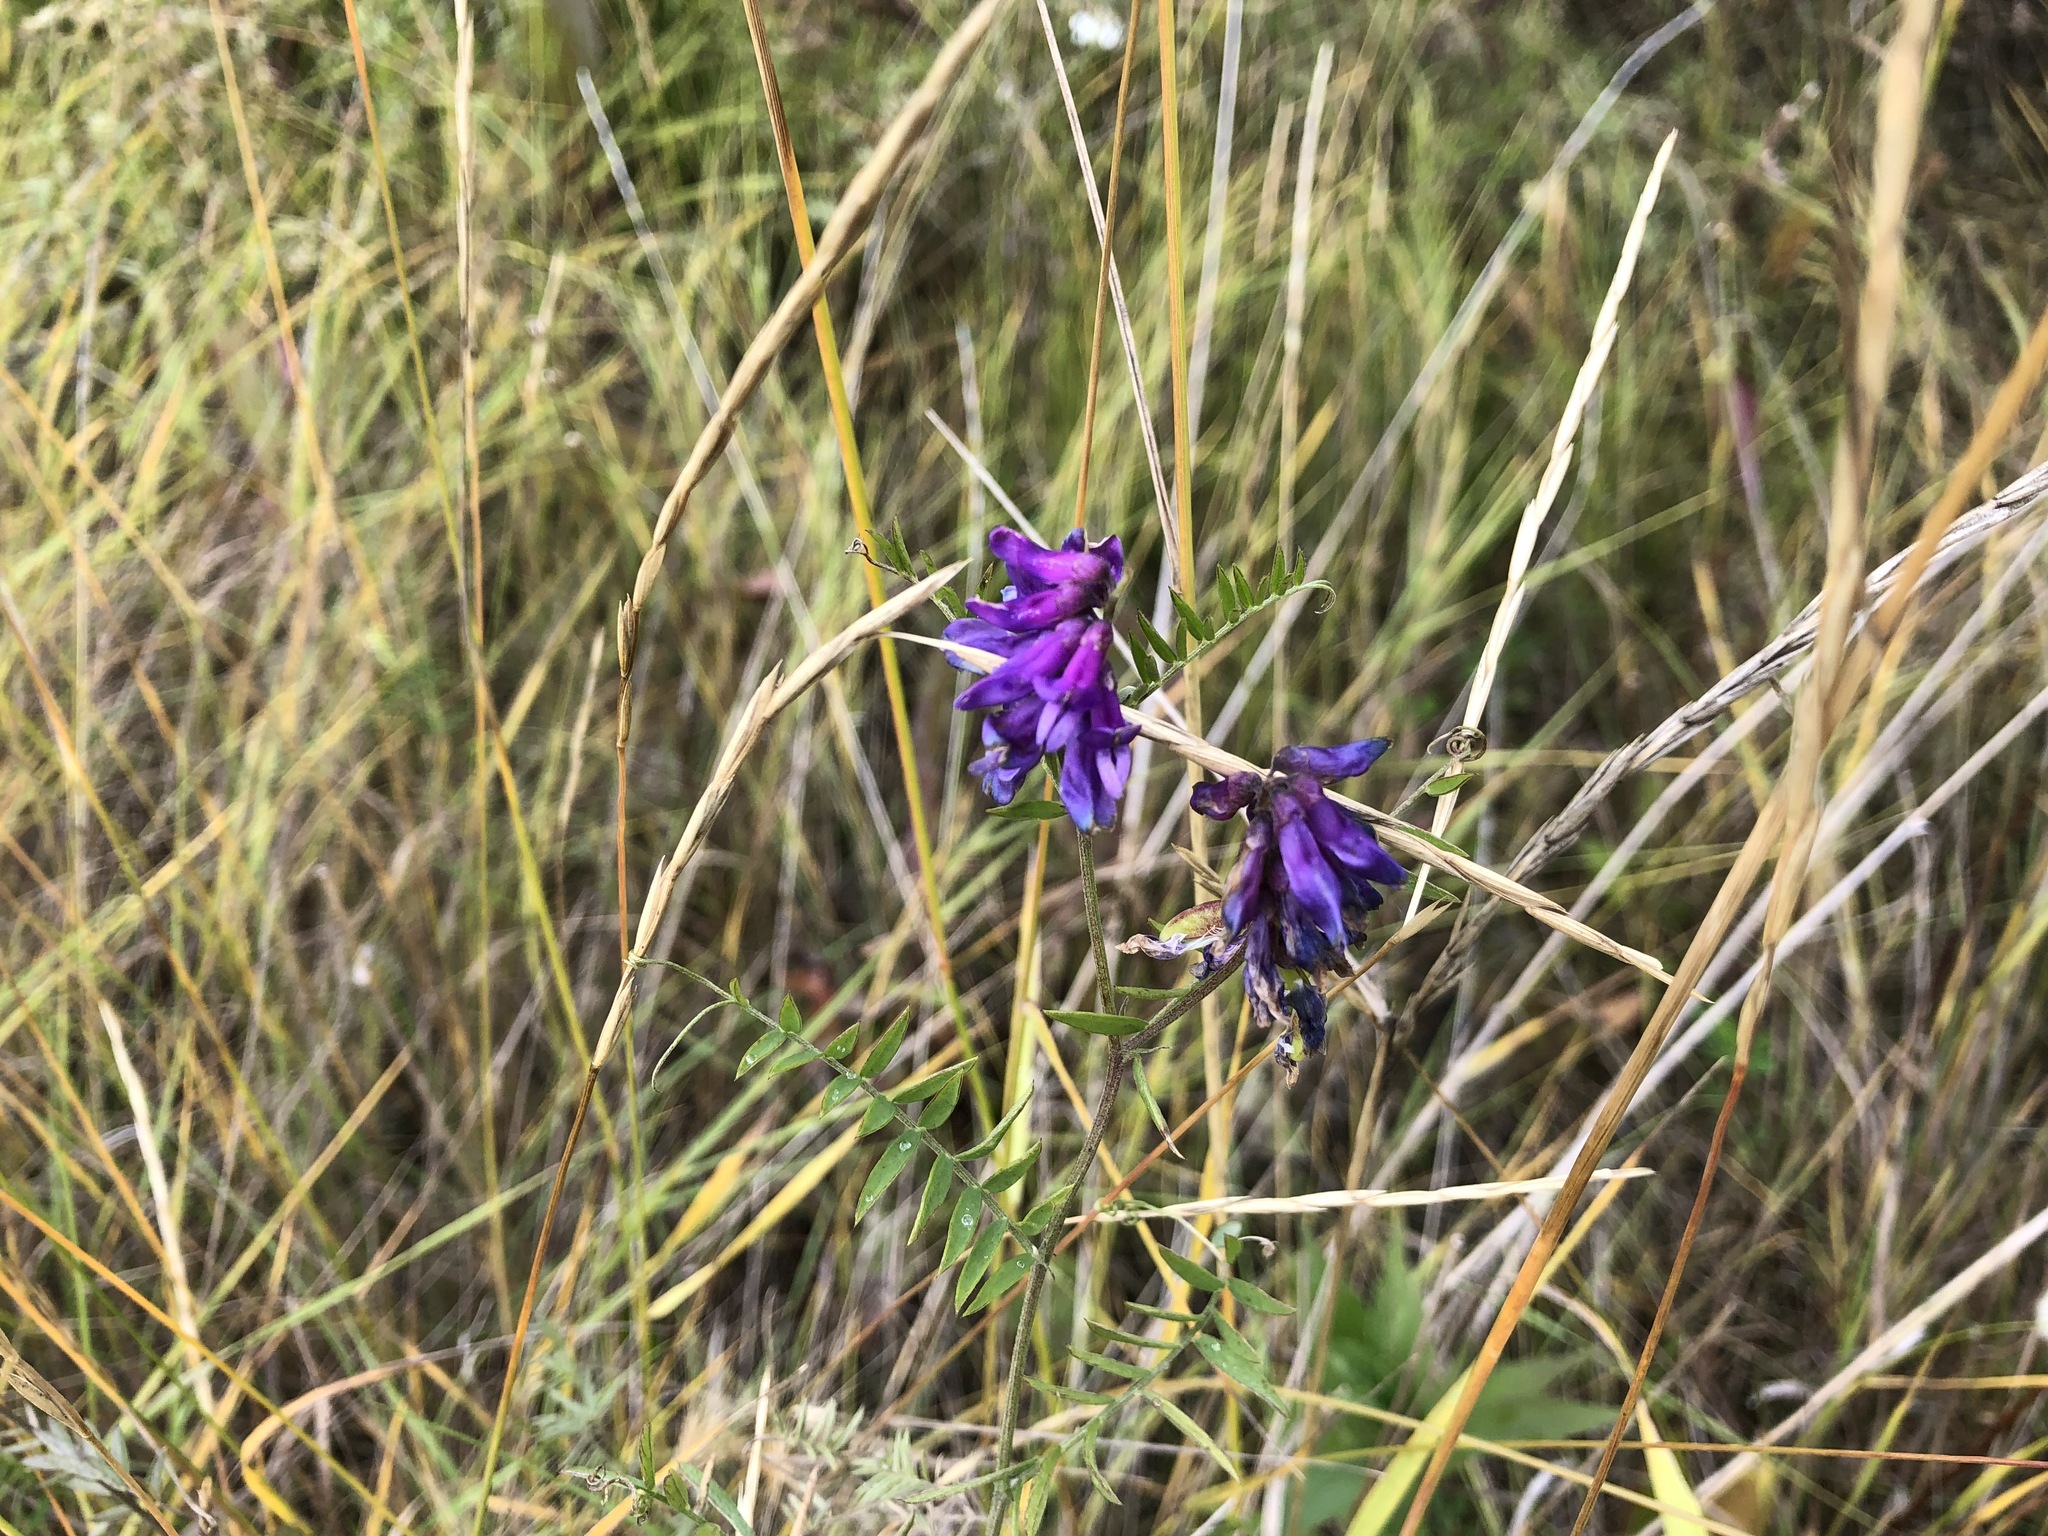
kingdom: Plantae
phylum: Tracheophyta
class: Magnoliopsida
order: Fabales
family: Fabaceae
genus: Vicia
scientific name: Vicia cracca
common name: Bird vetch
